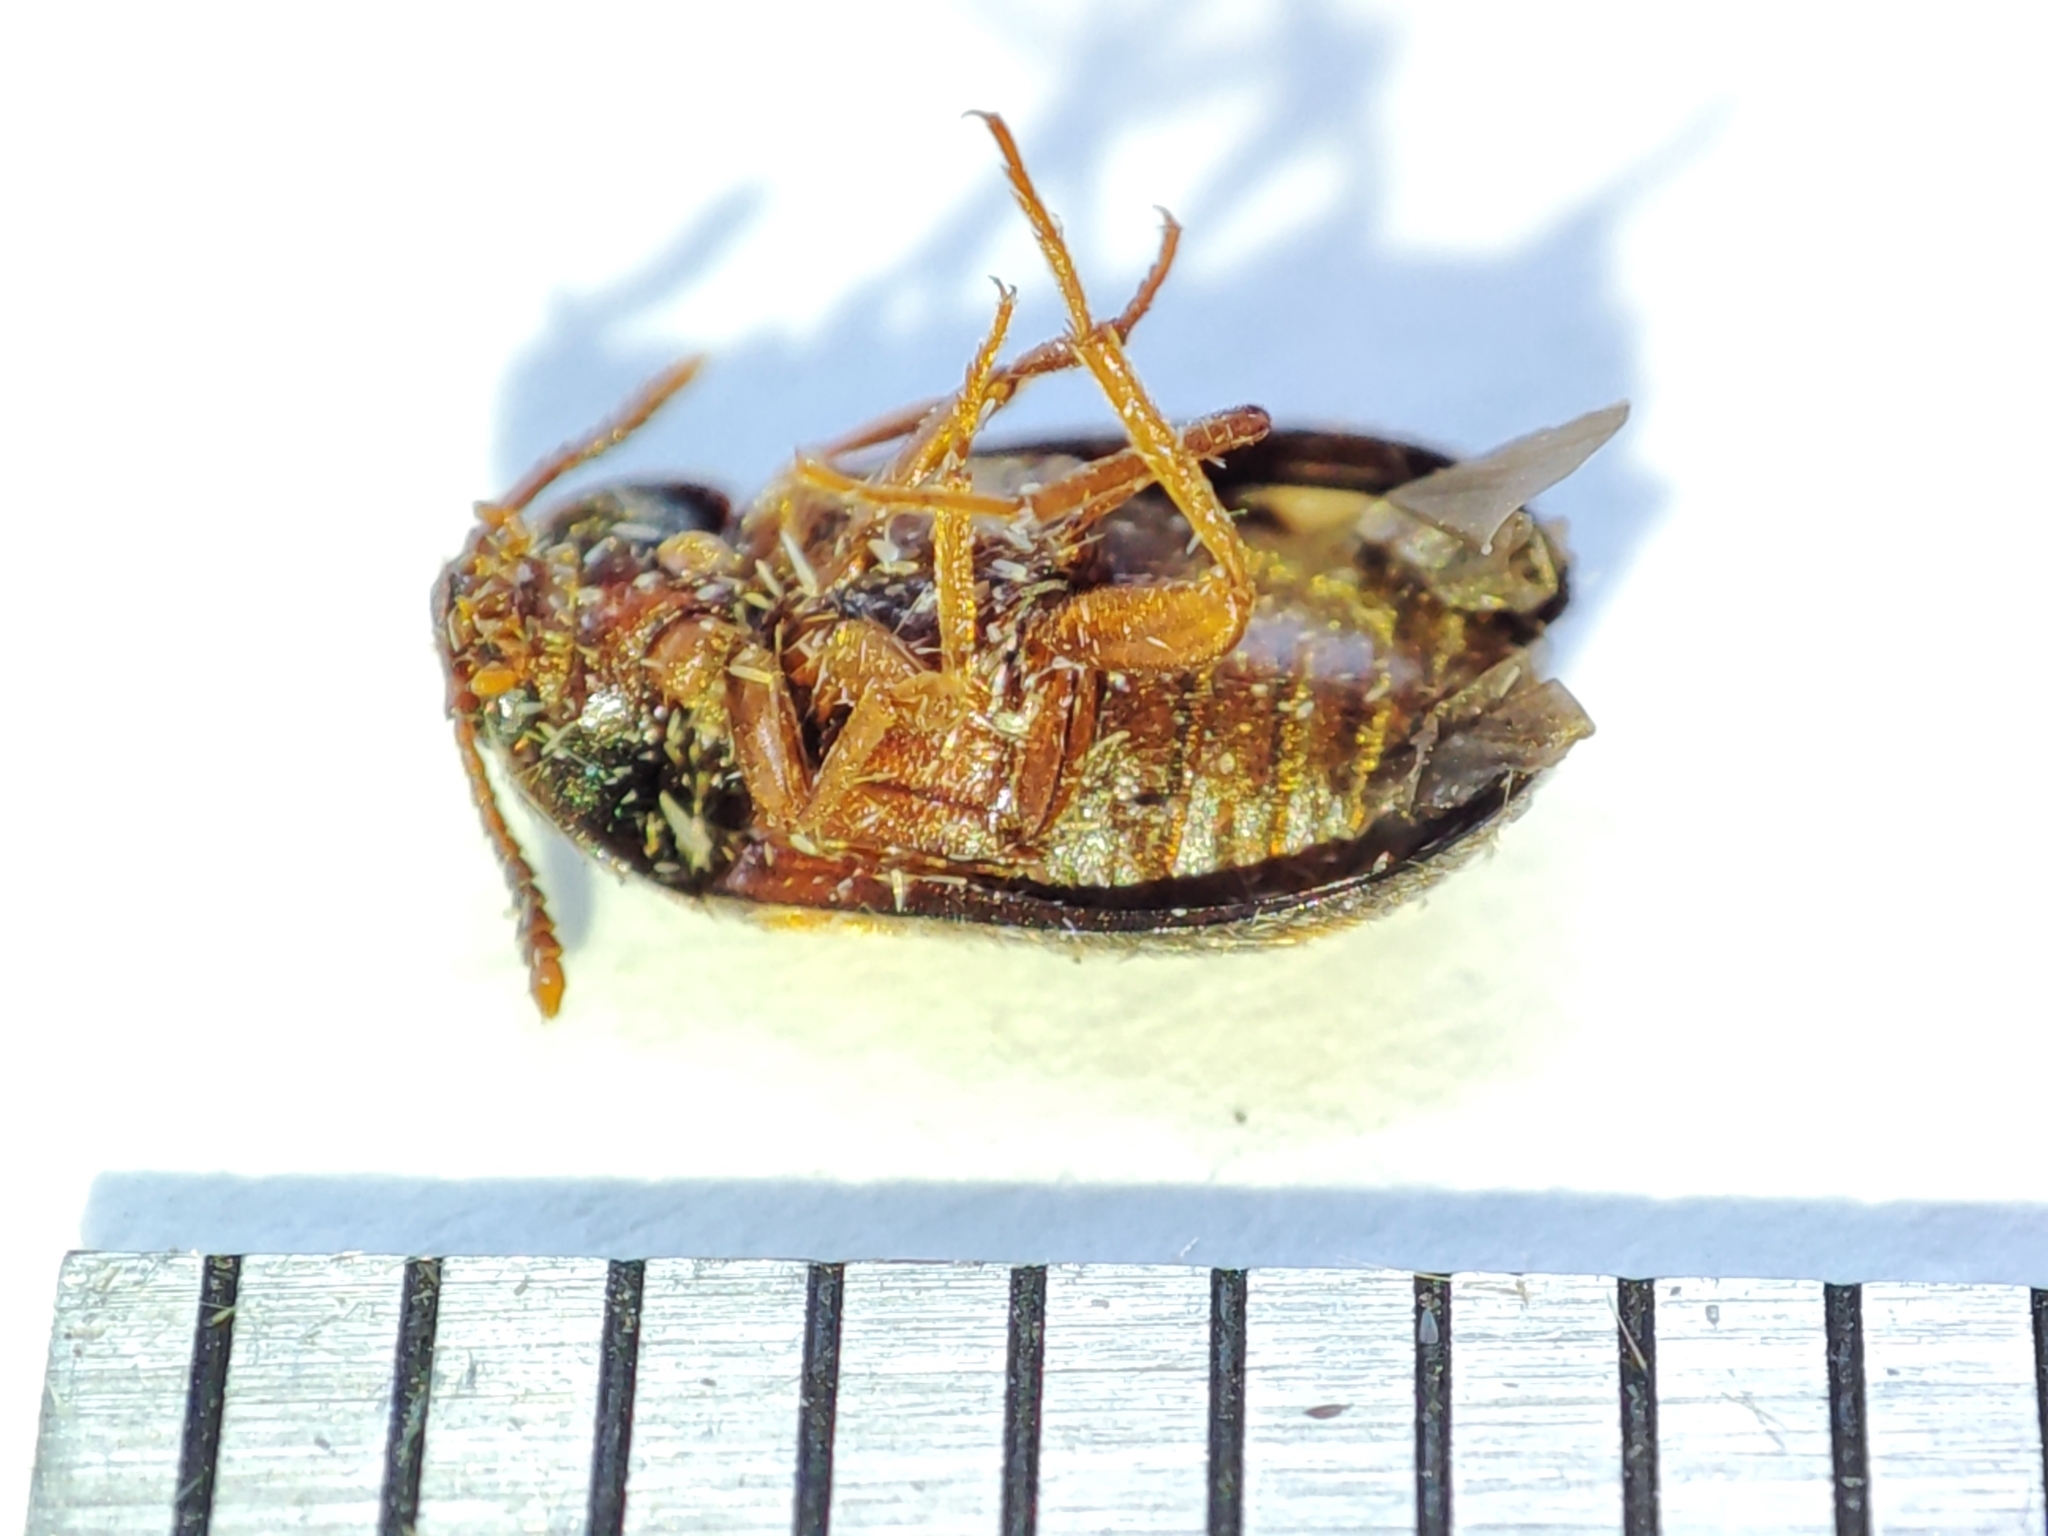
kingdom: Animalia
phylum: Arthropoda
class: Insecta
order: Coleoptera
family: Mycetophagidae
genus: Mycetophagus
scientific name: Mycetophagus quadripustulatus
